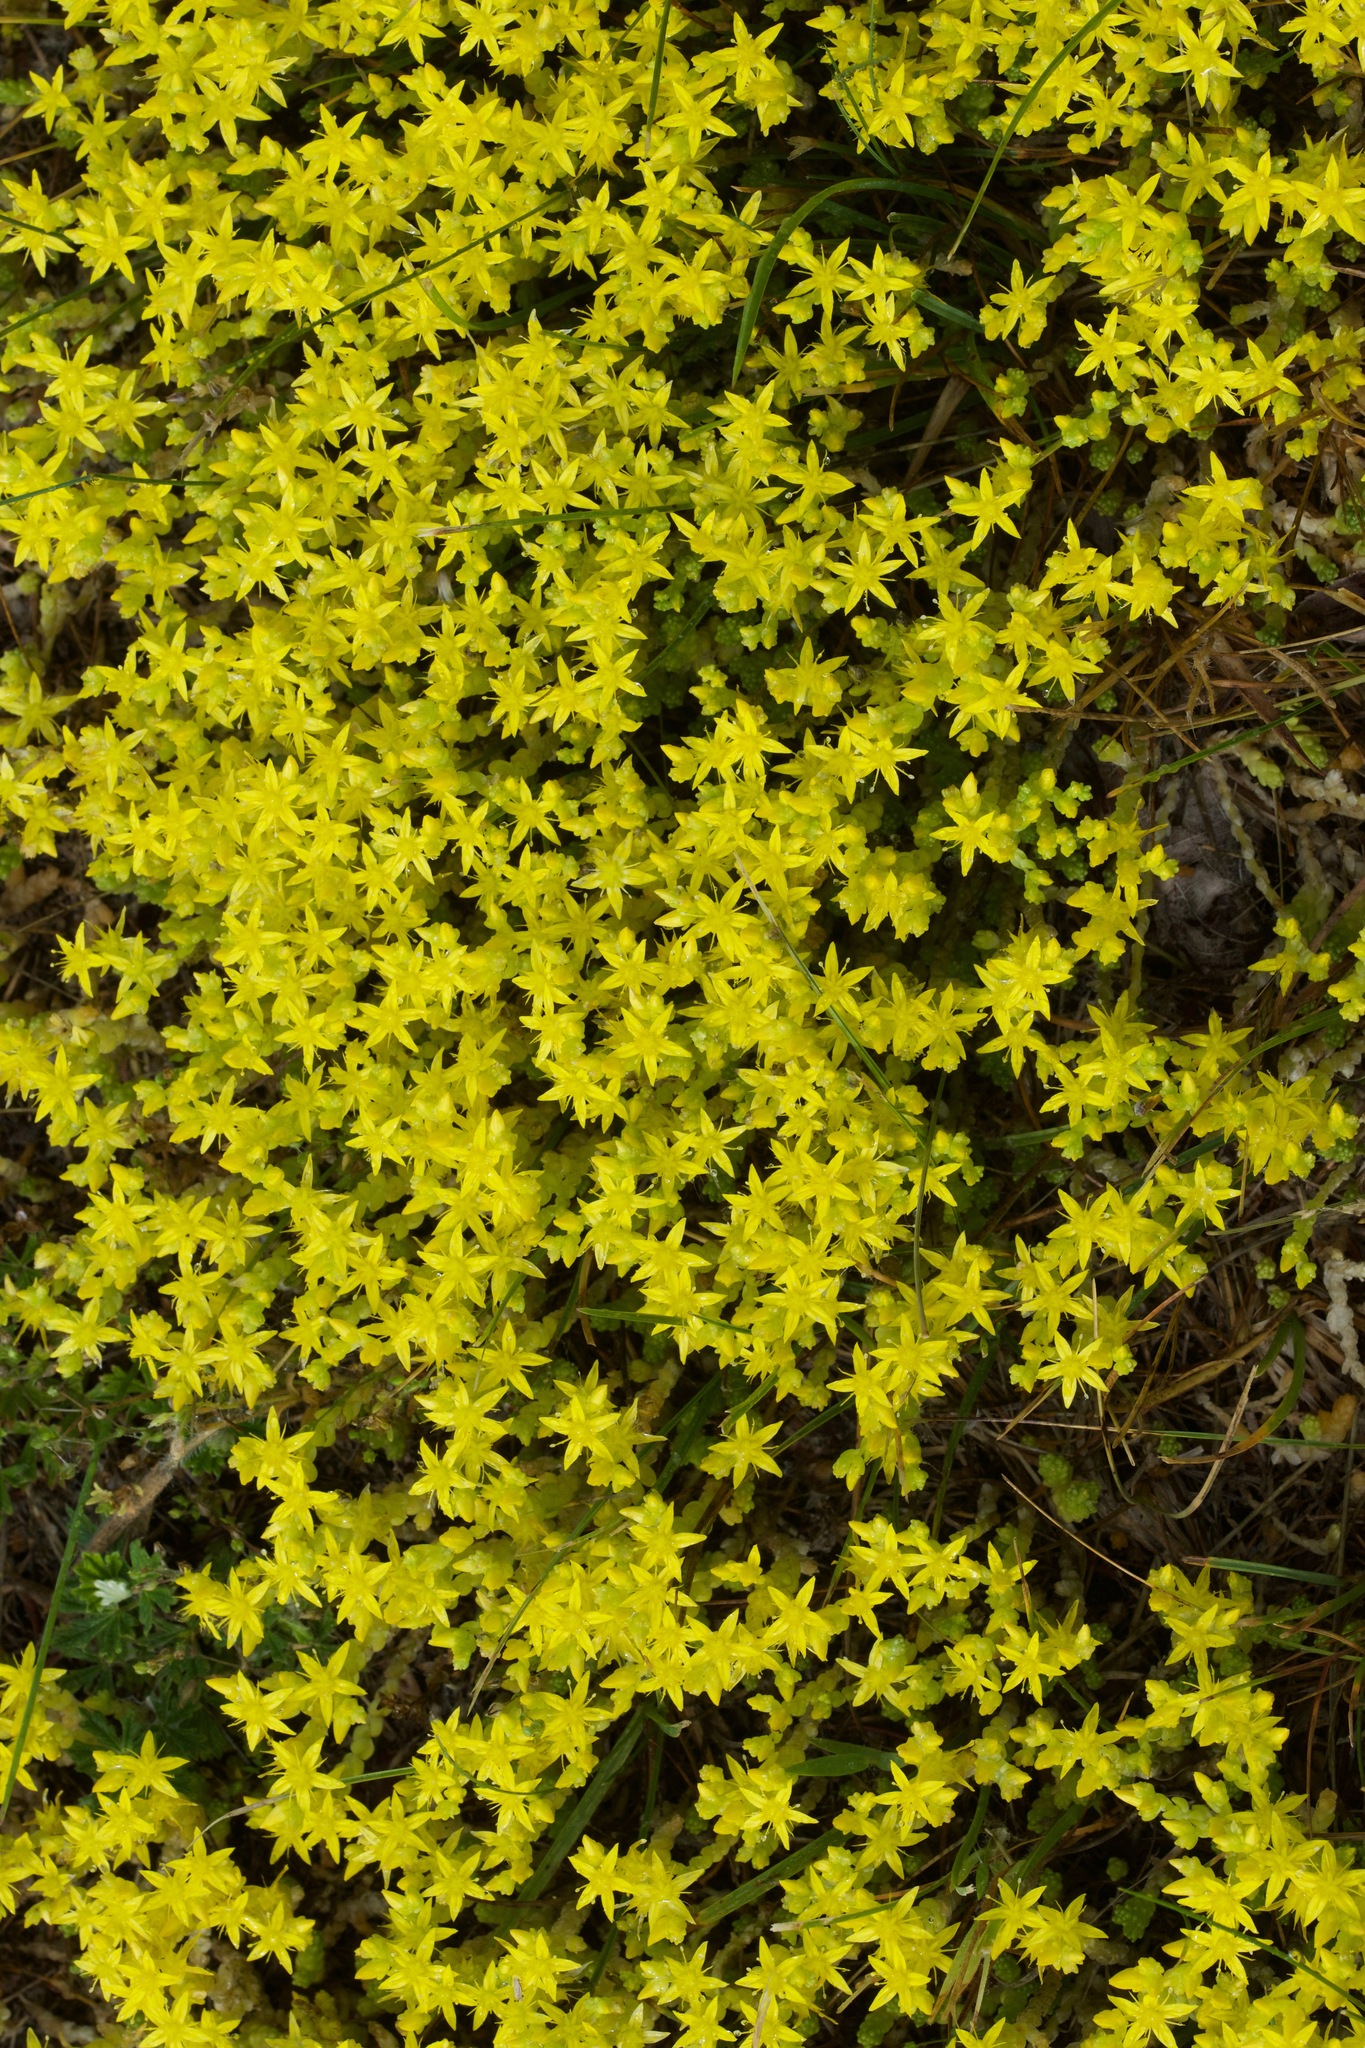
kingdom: Plantae
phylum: Tracheophyta
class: Magnoliopsida
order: Saxifragales
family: Crassulaceae
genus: Sedum
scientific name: Sedum acre
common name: Biting stonecrop
